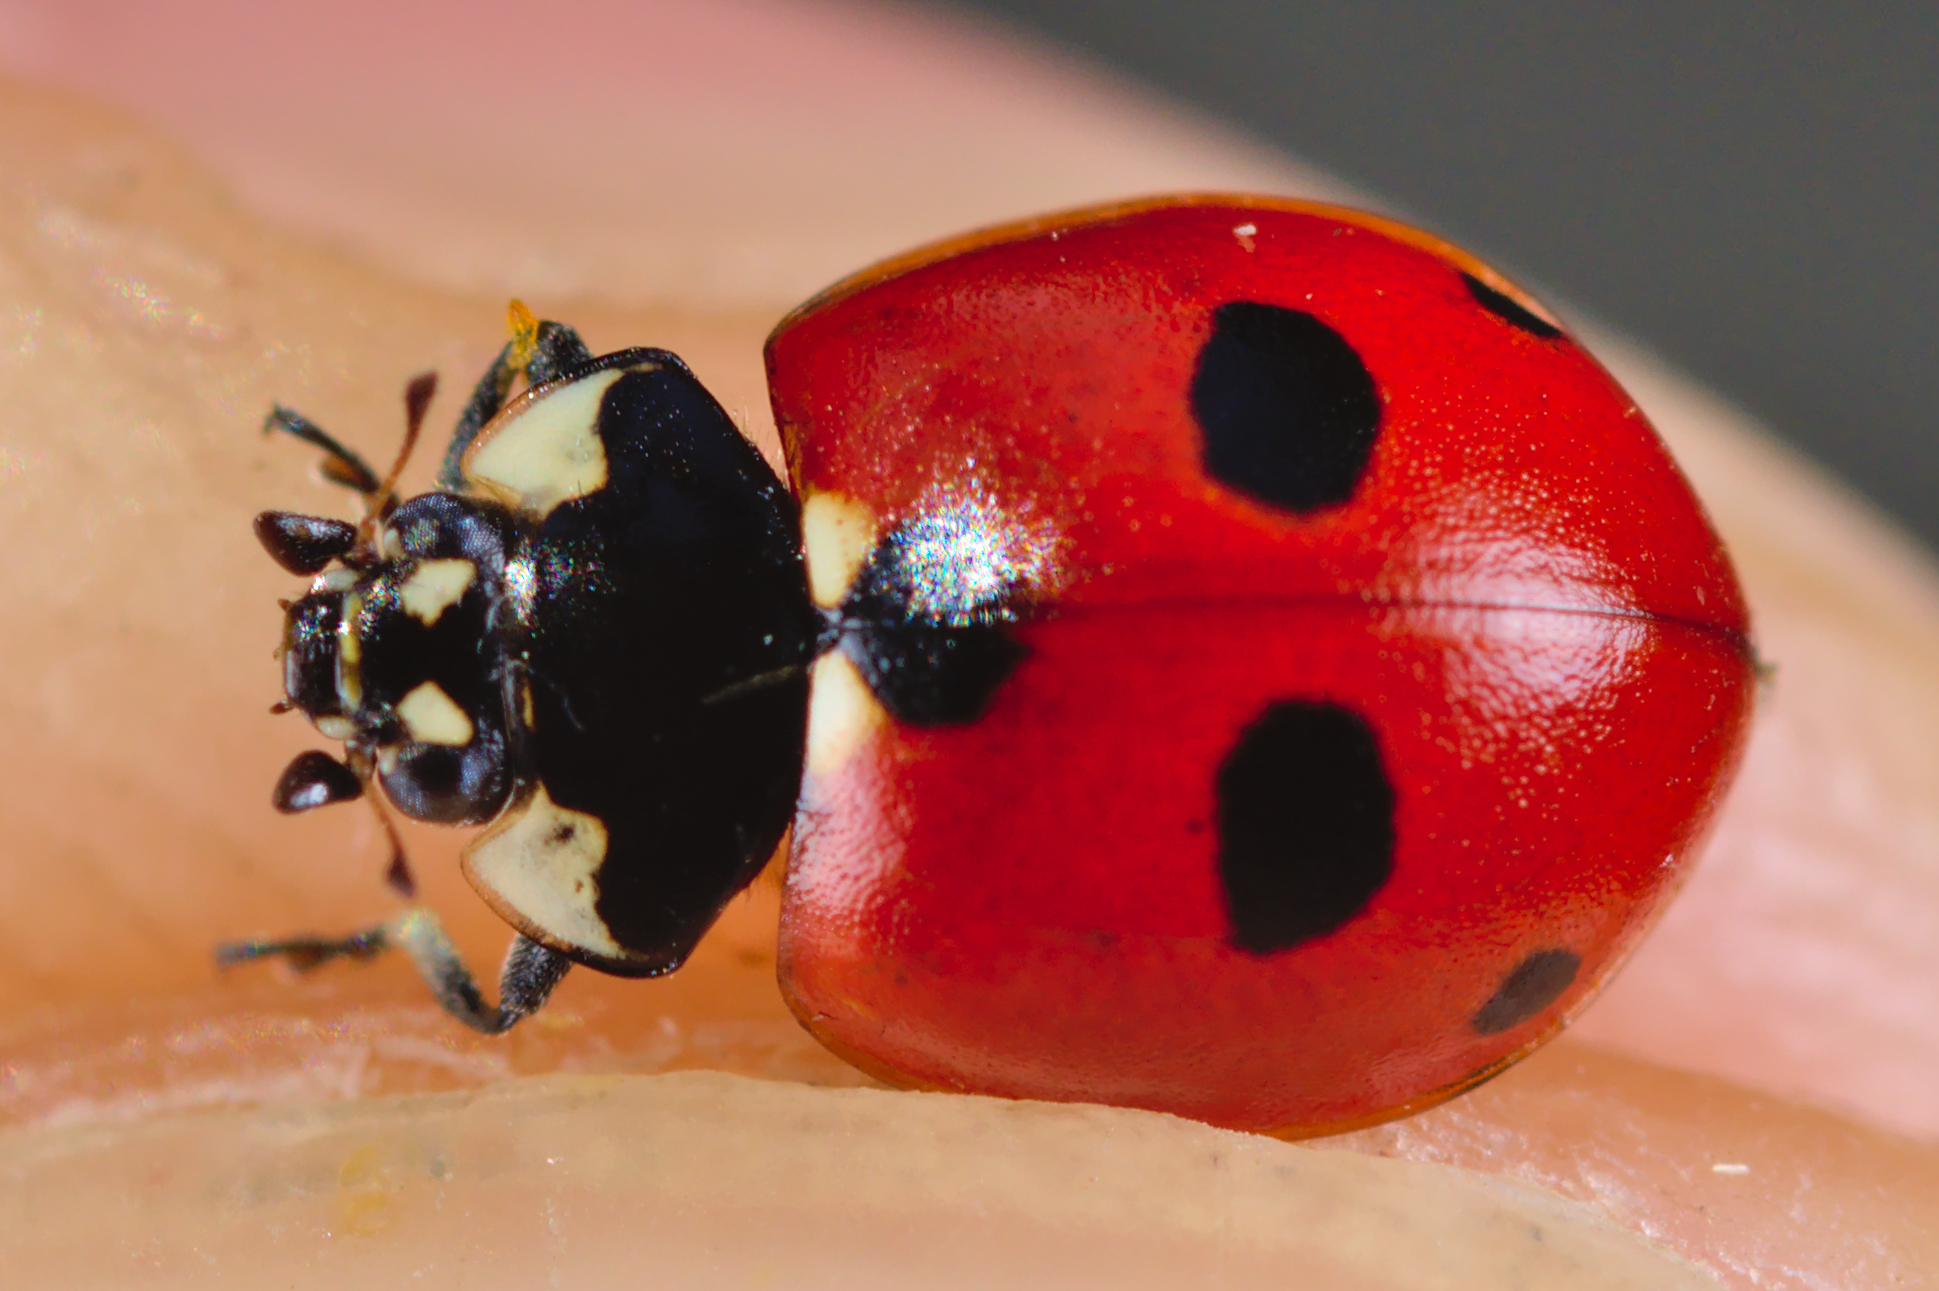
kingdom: Animalia
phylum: Arthropoda
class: Insecta
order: Coleoptera
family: Coccinellidae
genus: Coccinella
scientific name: Coccinella quinquepunctata
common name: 5-spot ladybird
